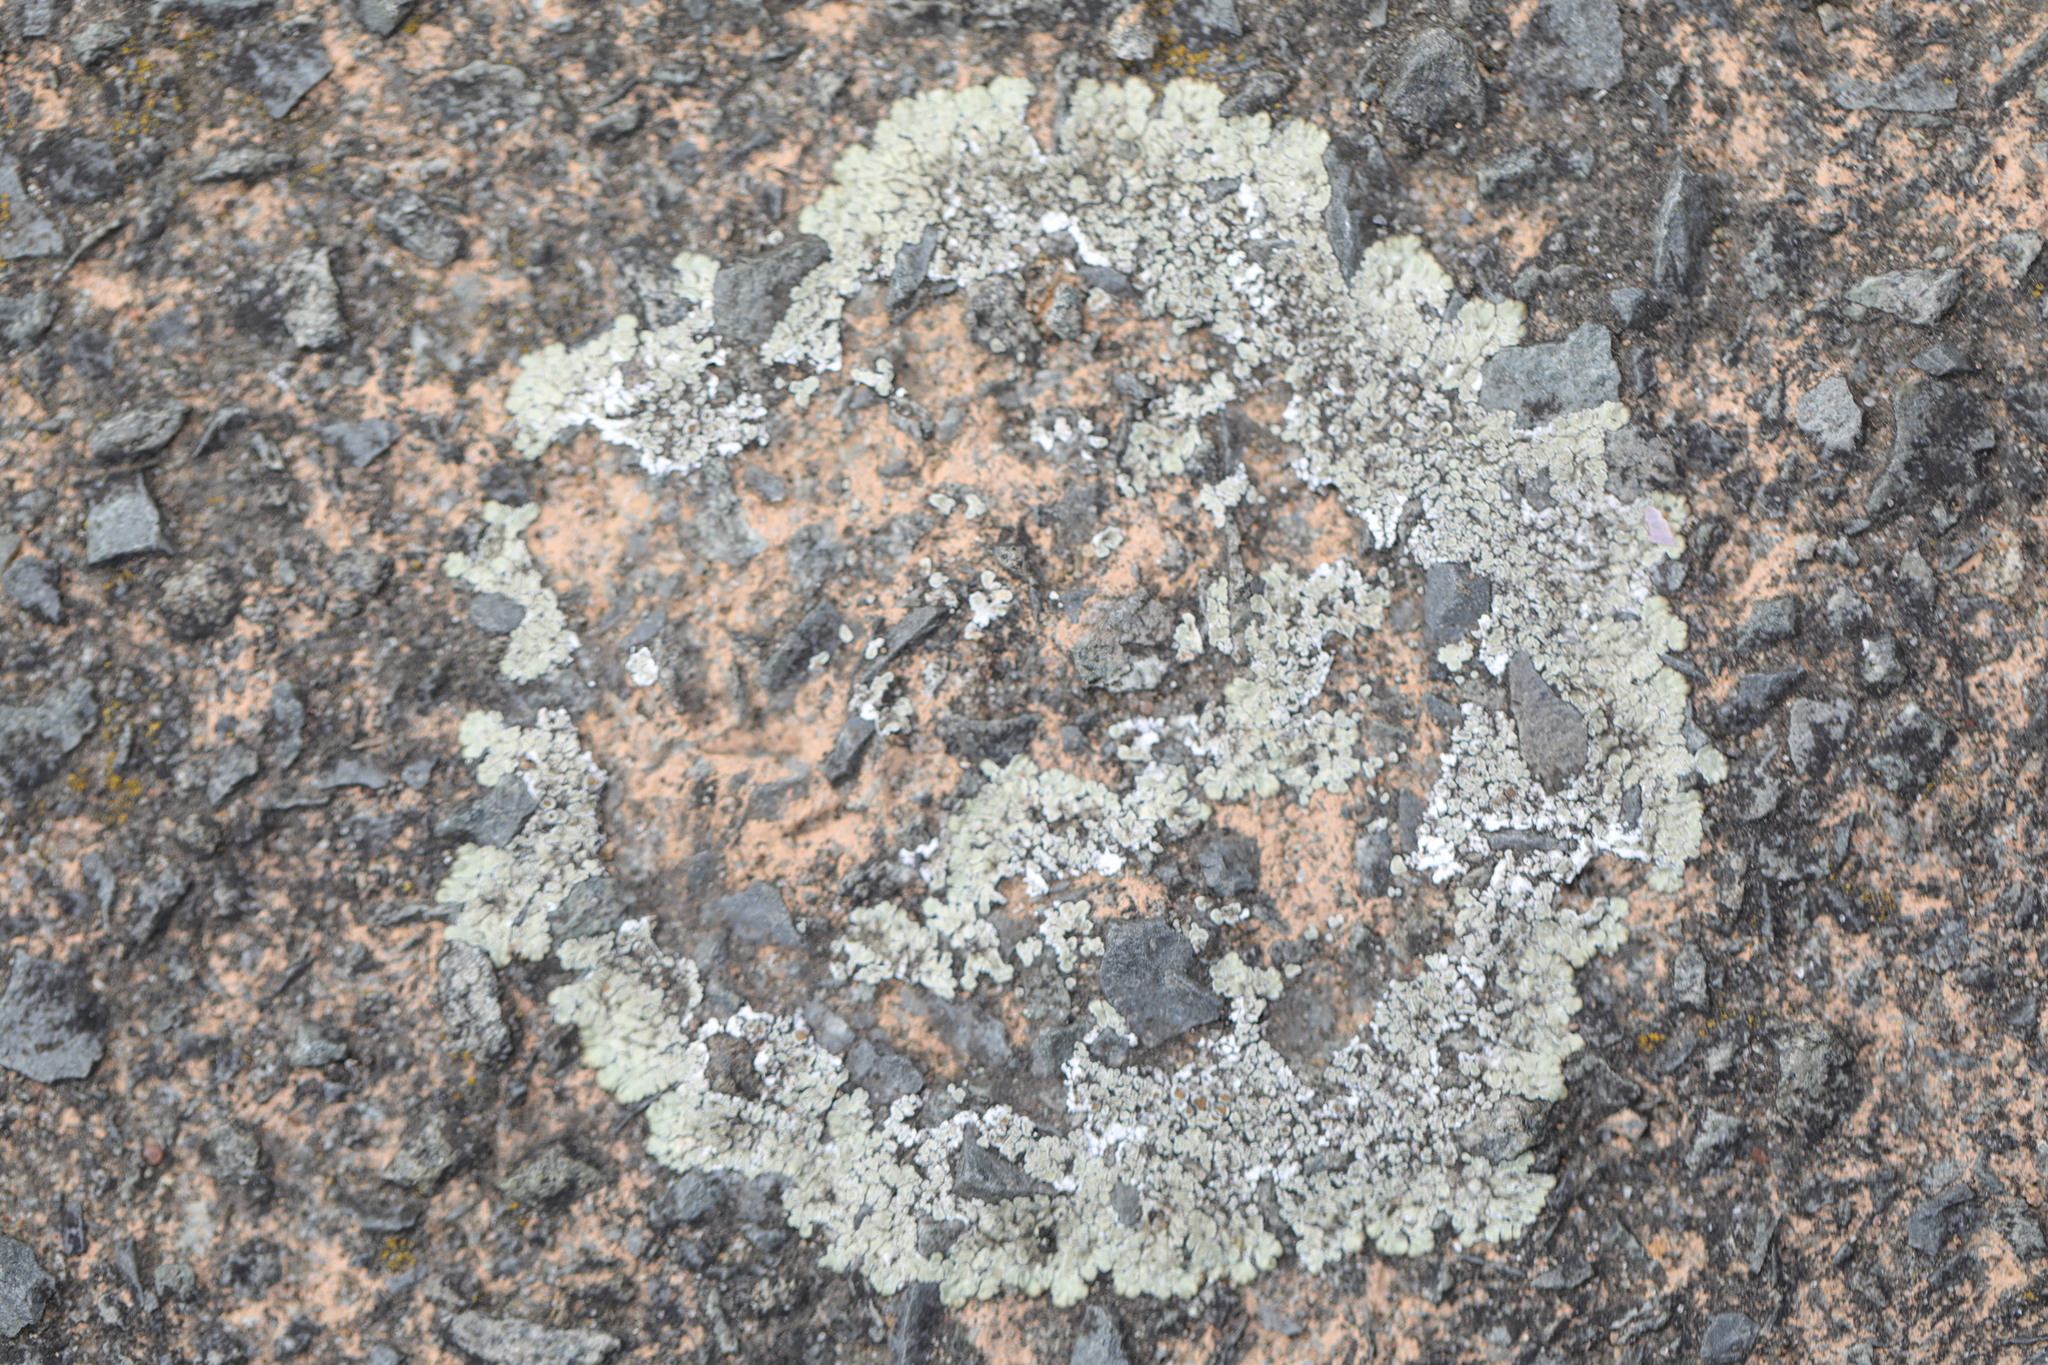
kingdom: Fungi
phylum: Ascomycota
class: Lecanoromycetes
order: Lecanorales
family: Lecanoraceae
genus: Protoparmeliopsis
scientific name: Protoparmeliopsis muralis
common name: Stonewall rim lichen
